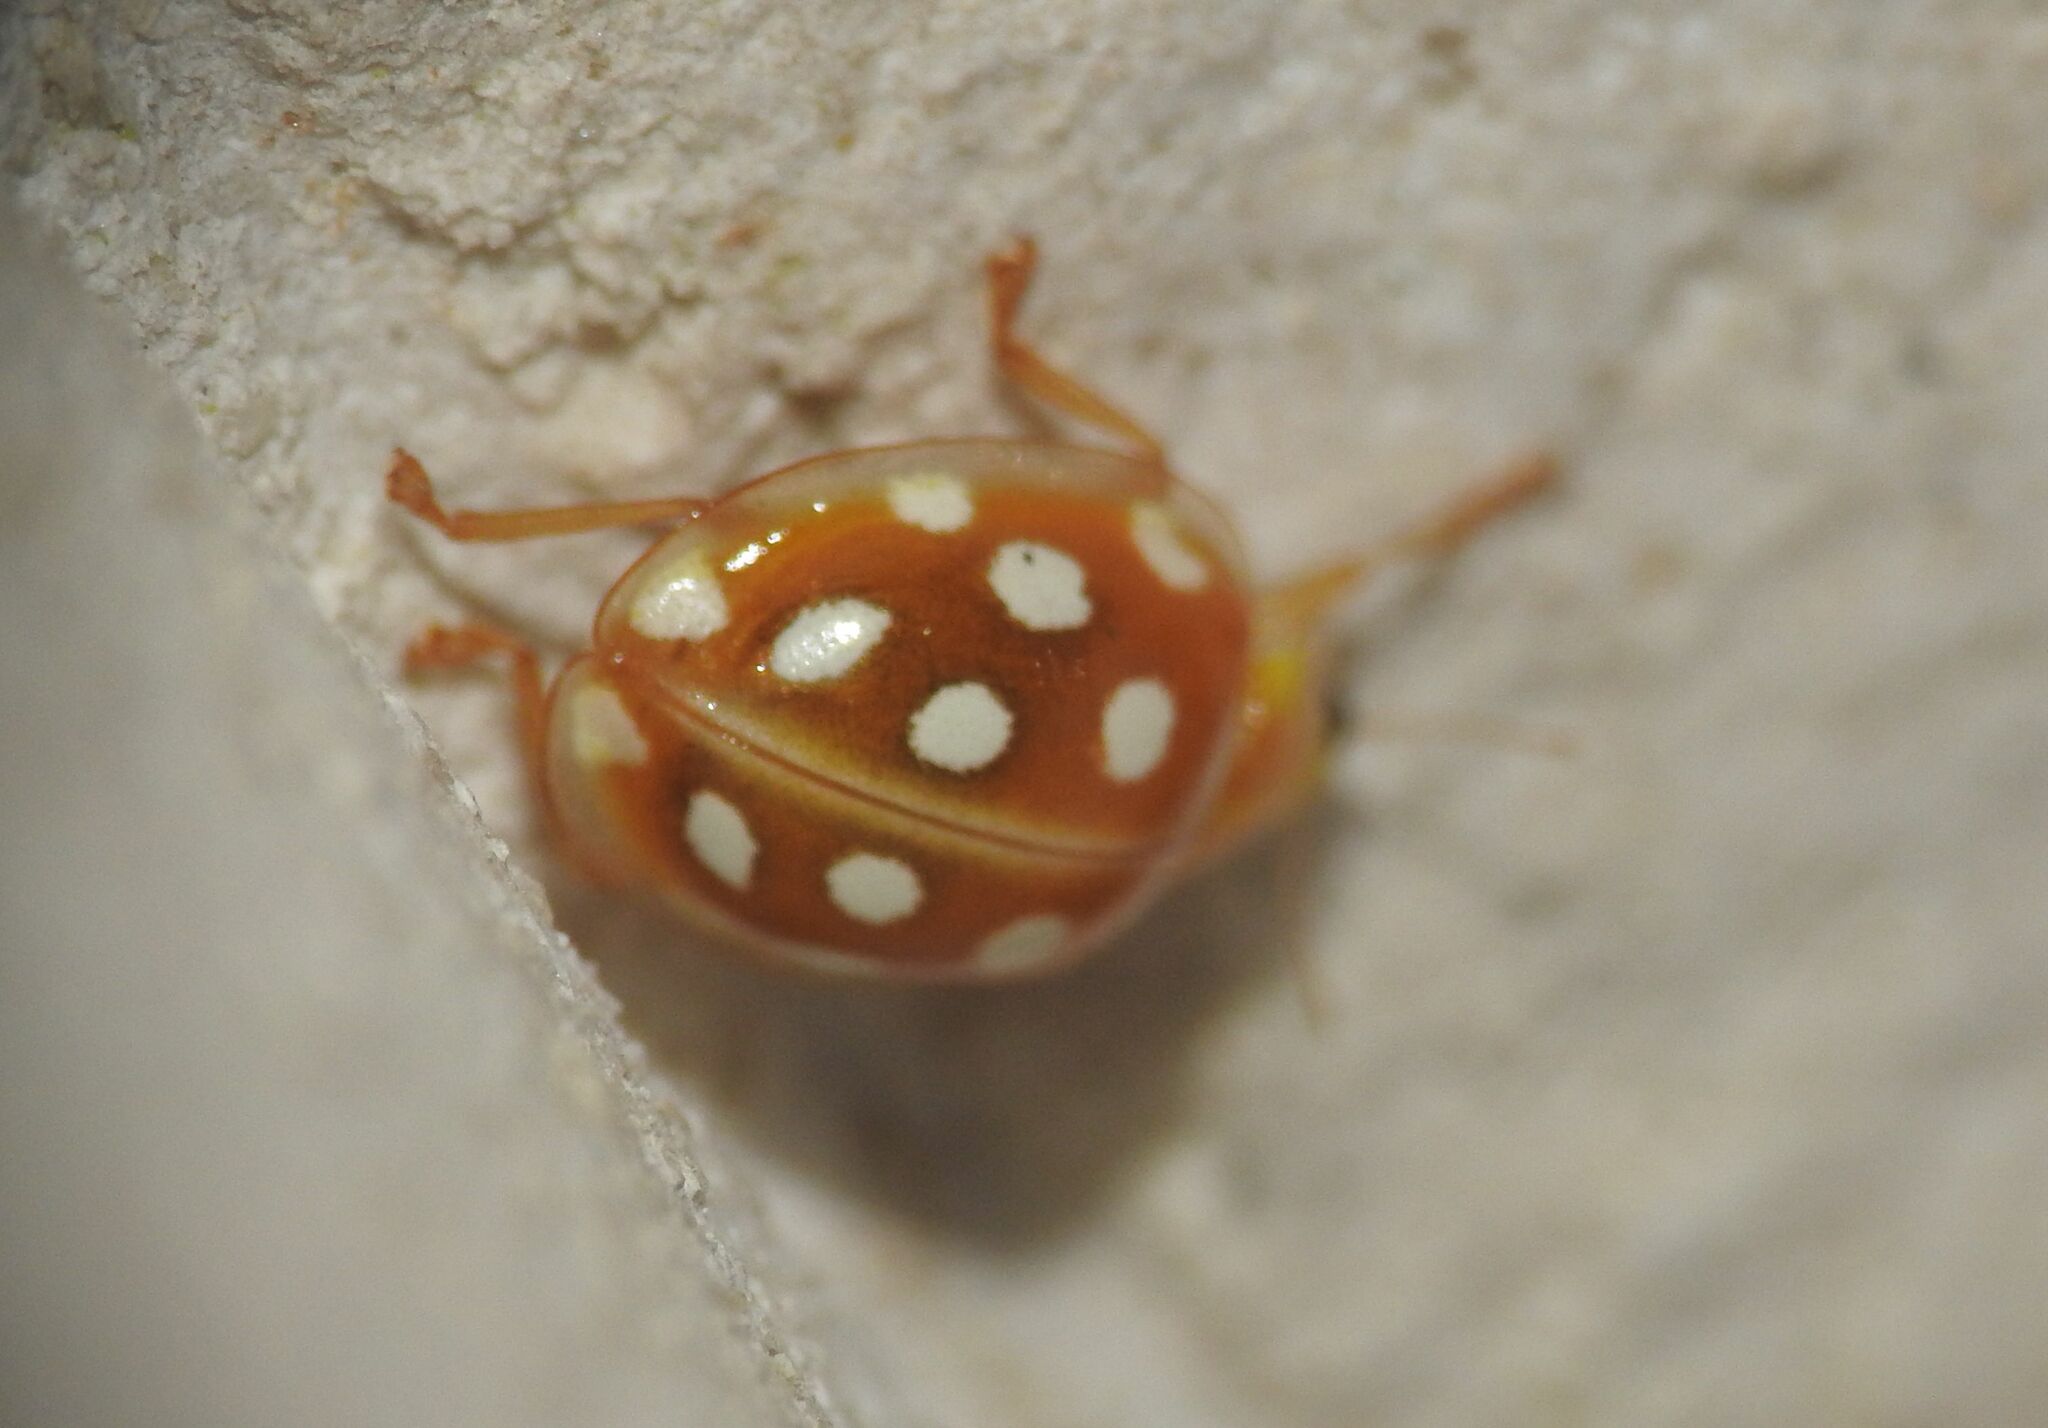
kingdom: Animalia
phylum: Arthropoda
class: Insecta
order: Coleoptera
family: Coccinellidae
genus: Halyzia
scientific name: Halyzia sedecimguttata
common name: Orange ladybird
